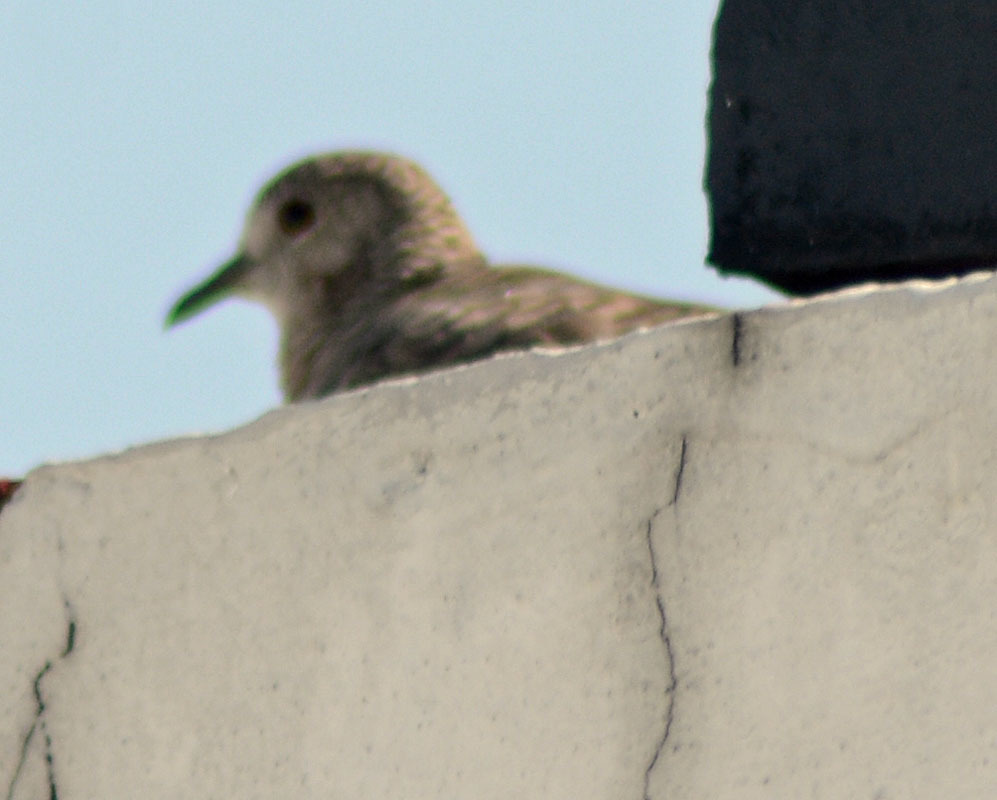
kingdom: Animalia
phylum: Chordata
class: Aves
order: Columbiformes
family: Columbidae
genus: Columbina
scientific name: Columbina inca
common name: Inca dove
